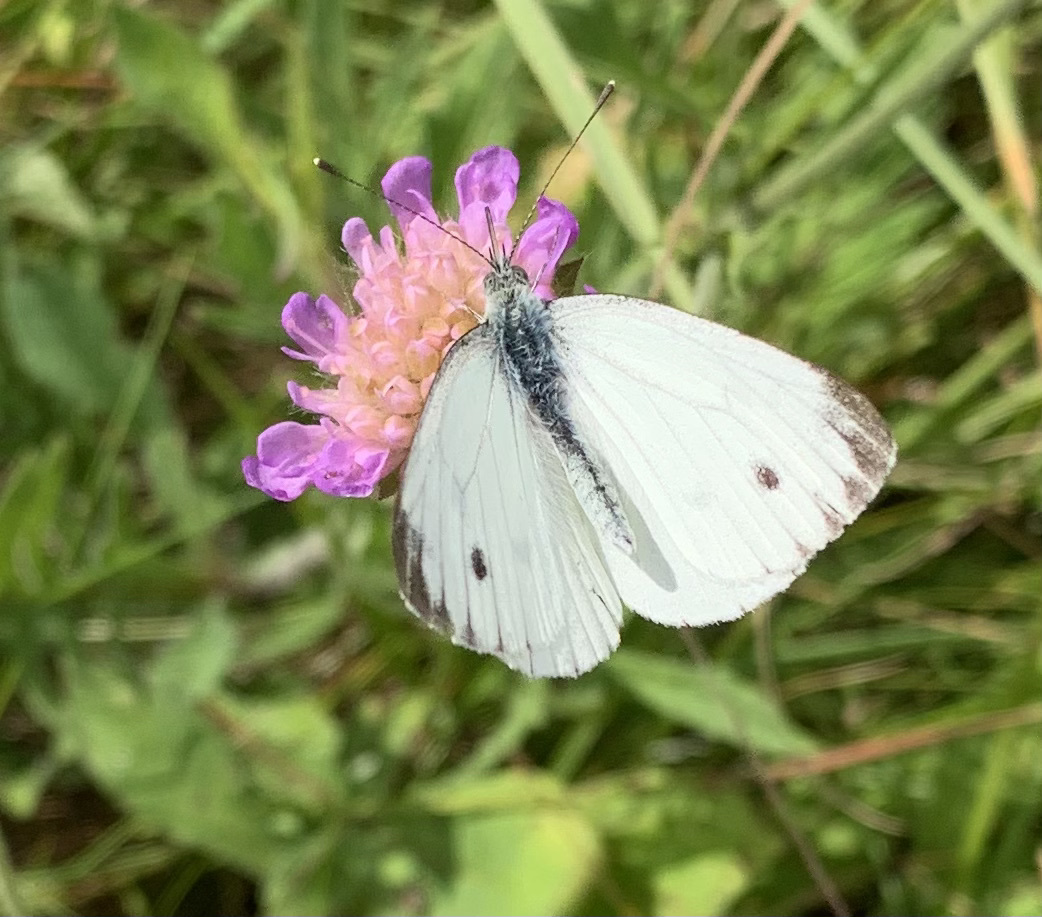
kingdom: Animalia
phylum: Arthropoda
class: Insecta
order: Lepidoptera
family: Pieridae
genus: Pieris
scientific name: Pieris napi
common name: Green-veined white
